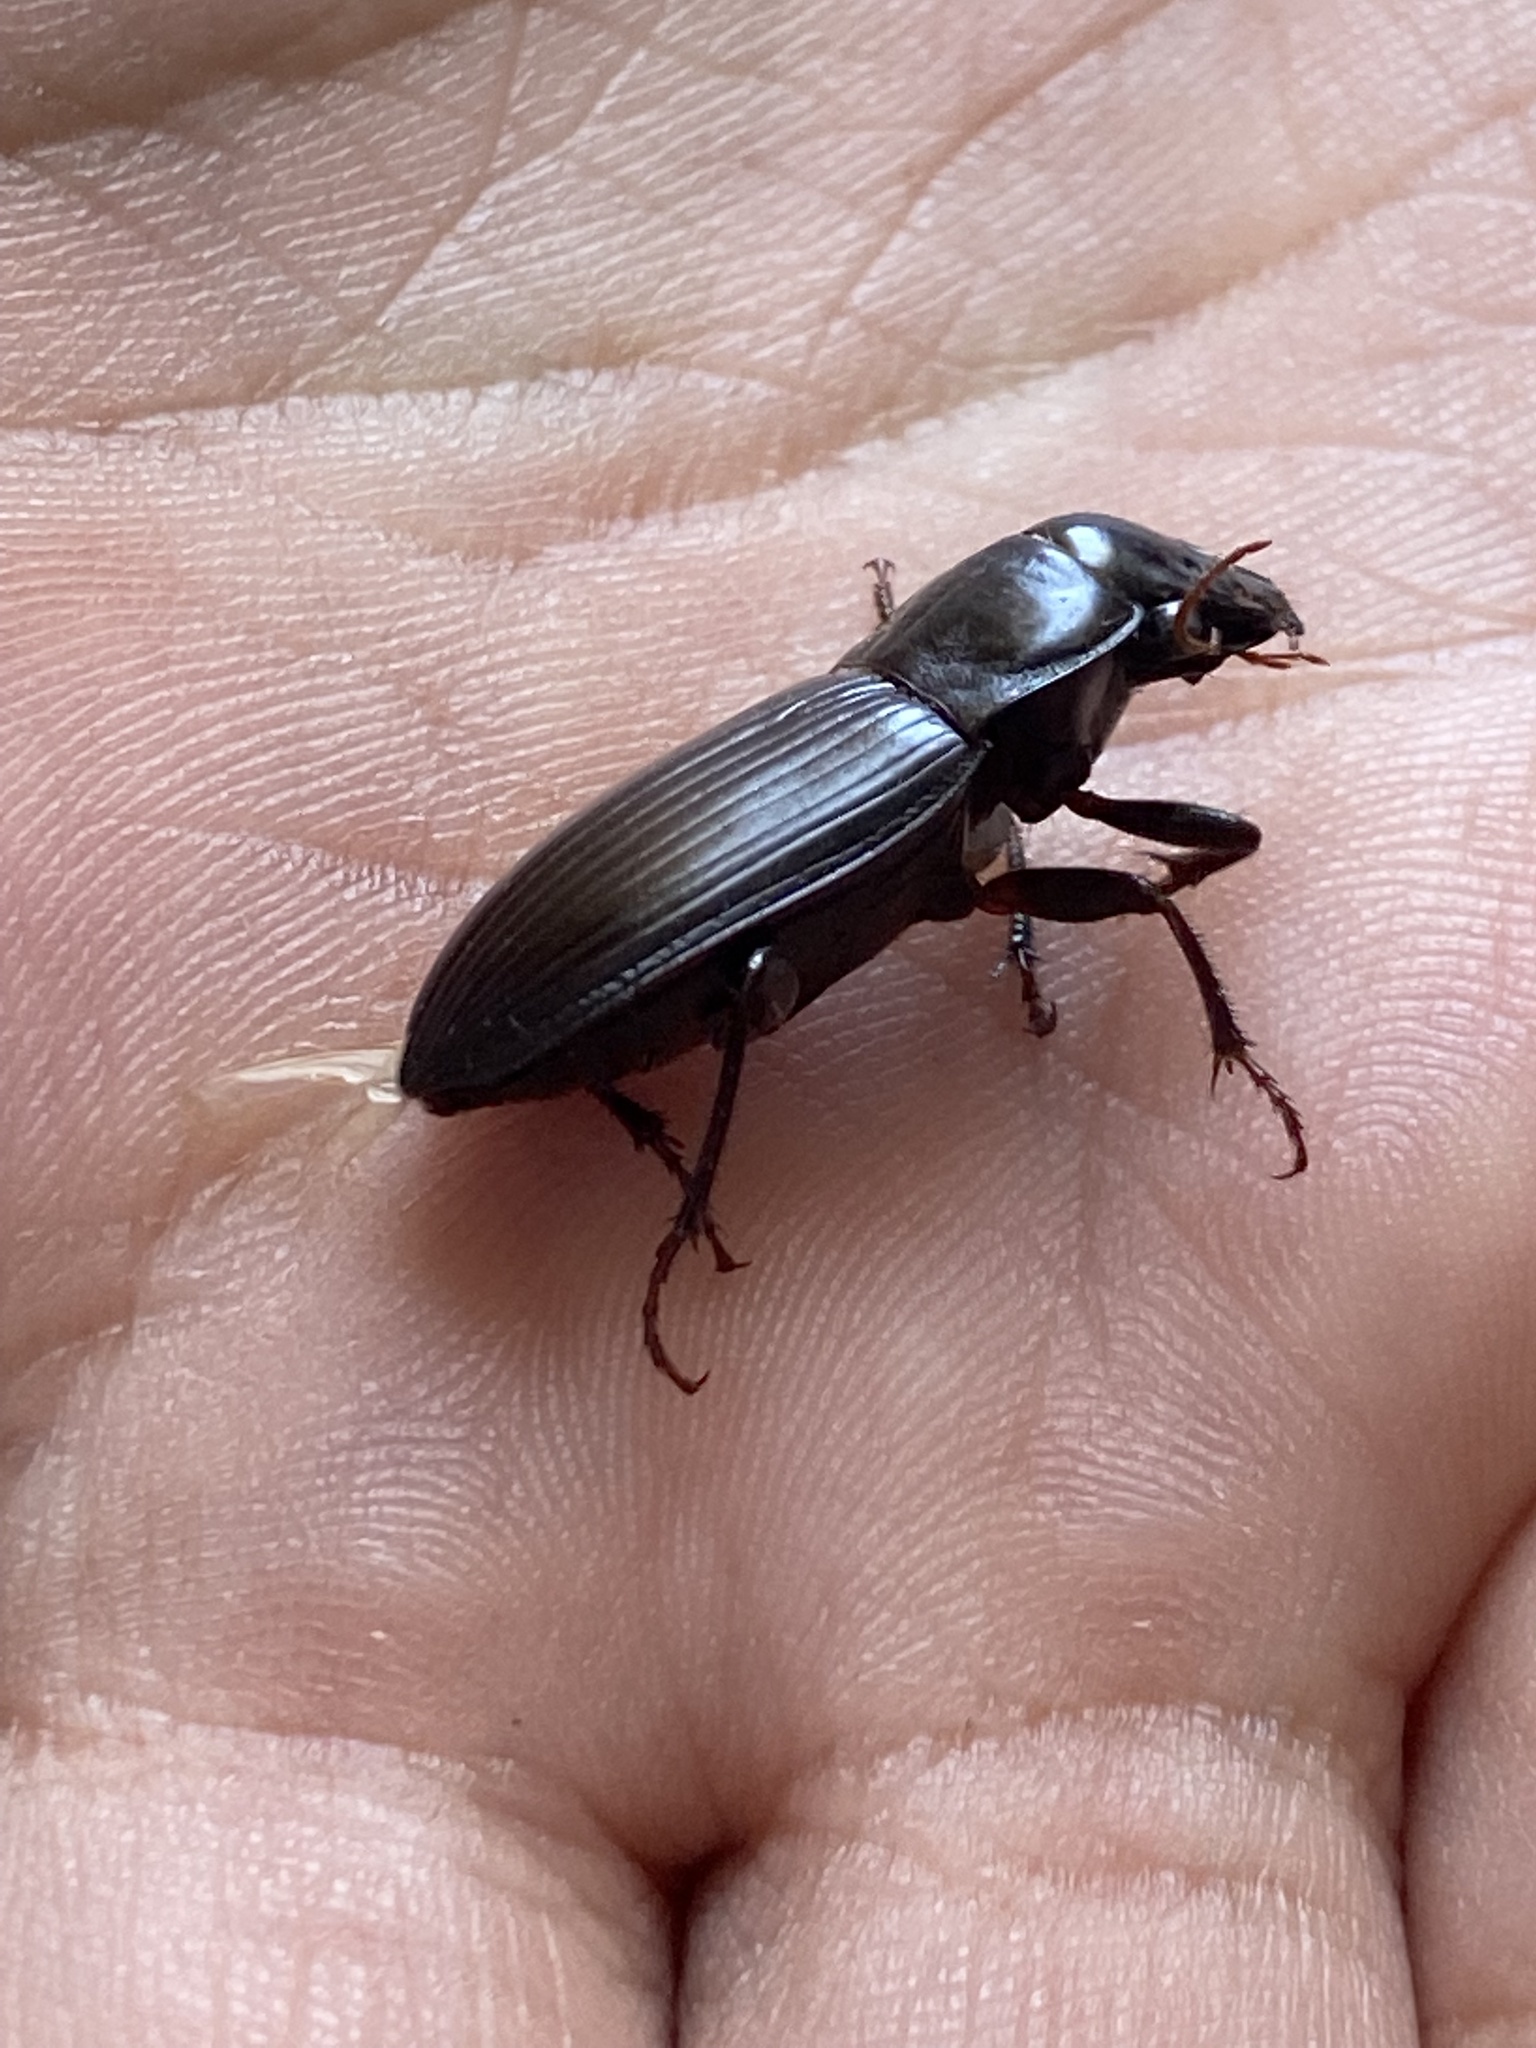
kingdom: Animalia
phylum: Arthropoda
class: Insecta
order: Coleoptera
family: Carabidae
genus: Harpalus
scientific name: Harpalus
